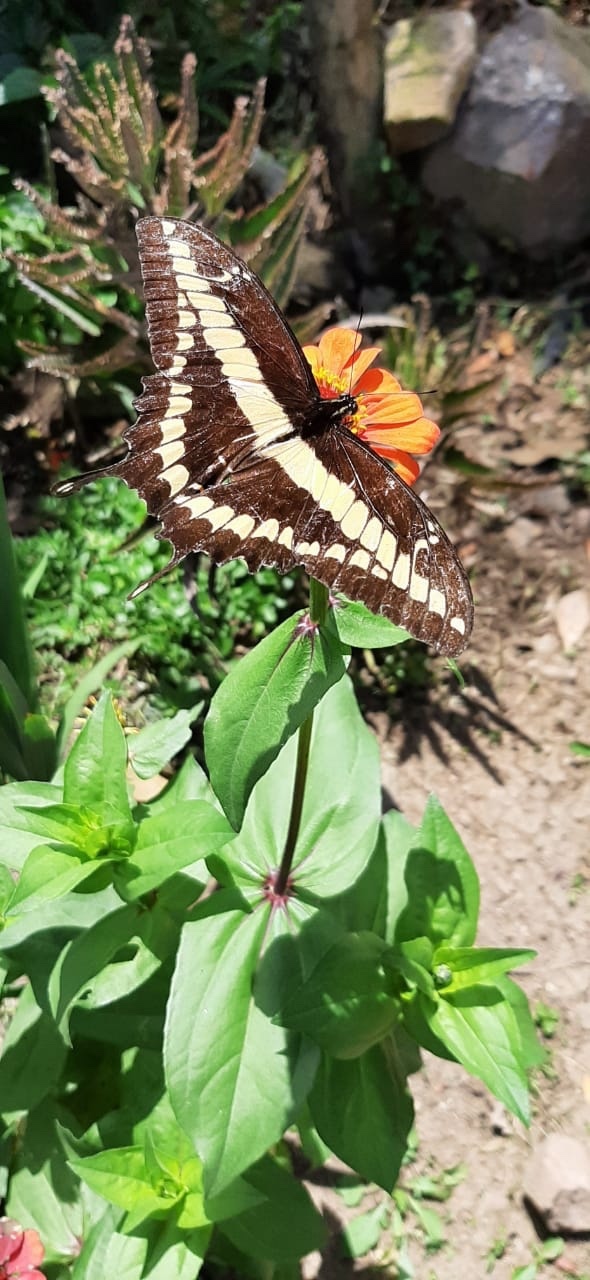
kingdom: Animalia
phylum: Arthropoda
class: Insecta
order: Lepidoptera
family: Papilionidae
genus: Papilio
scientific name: Papilio thoas
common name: King swallowtail
